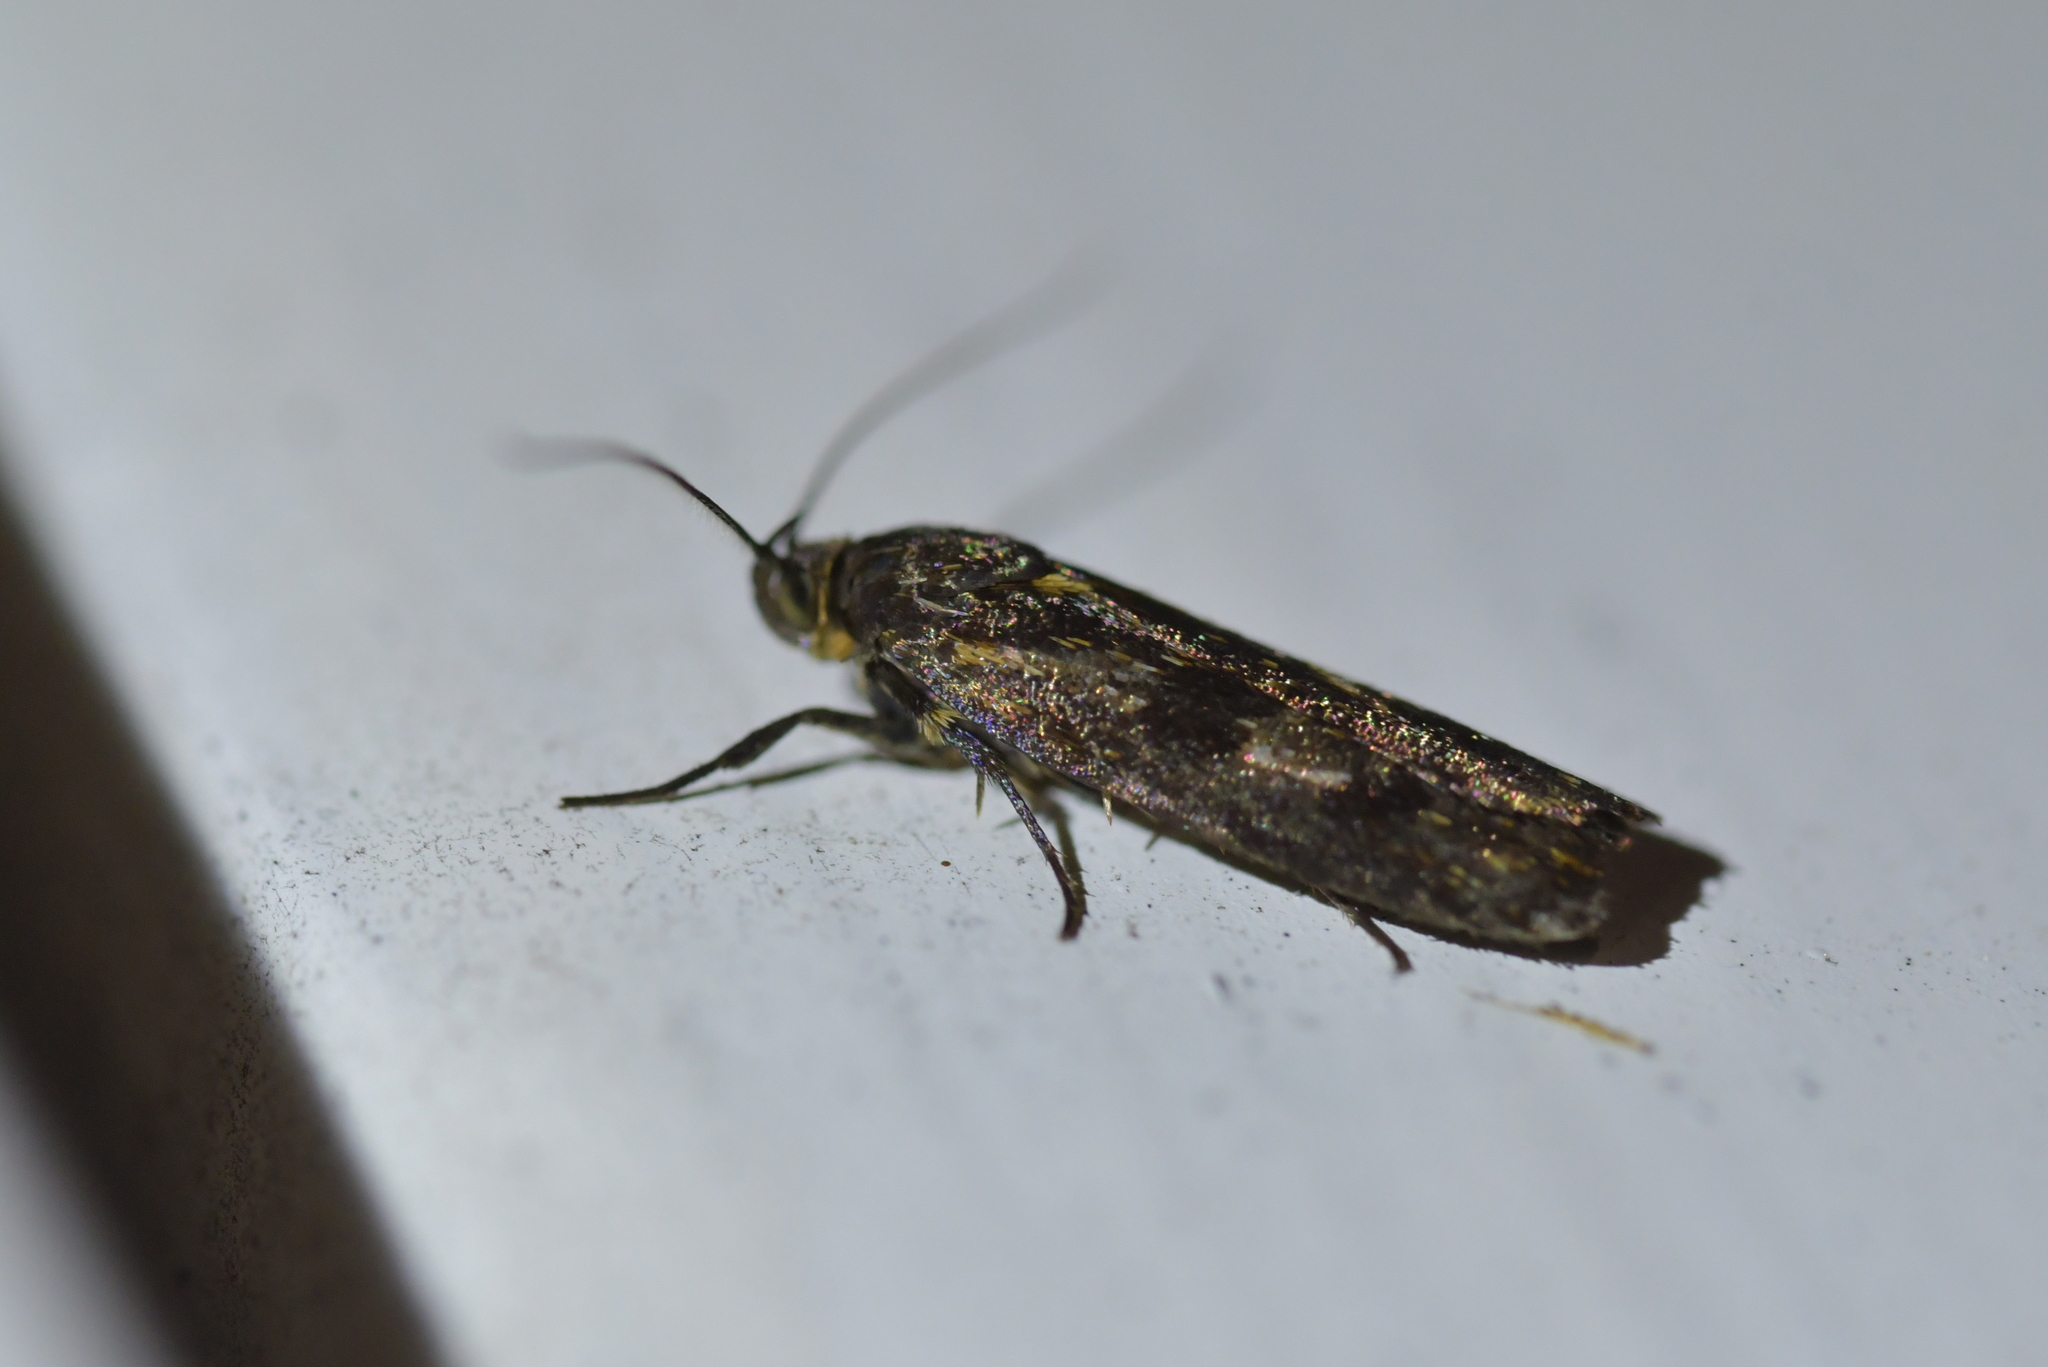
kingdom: Animalia
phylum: Arthropoda
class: Insecta
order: Lepidoptera
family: Oecophoridae
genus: Hierodoris
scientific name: Hierodoris atychioides
